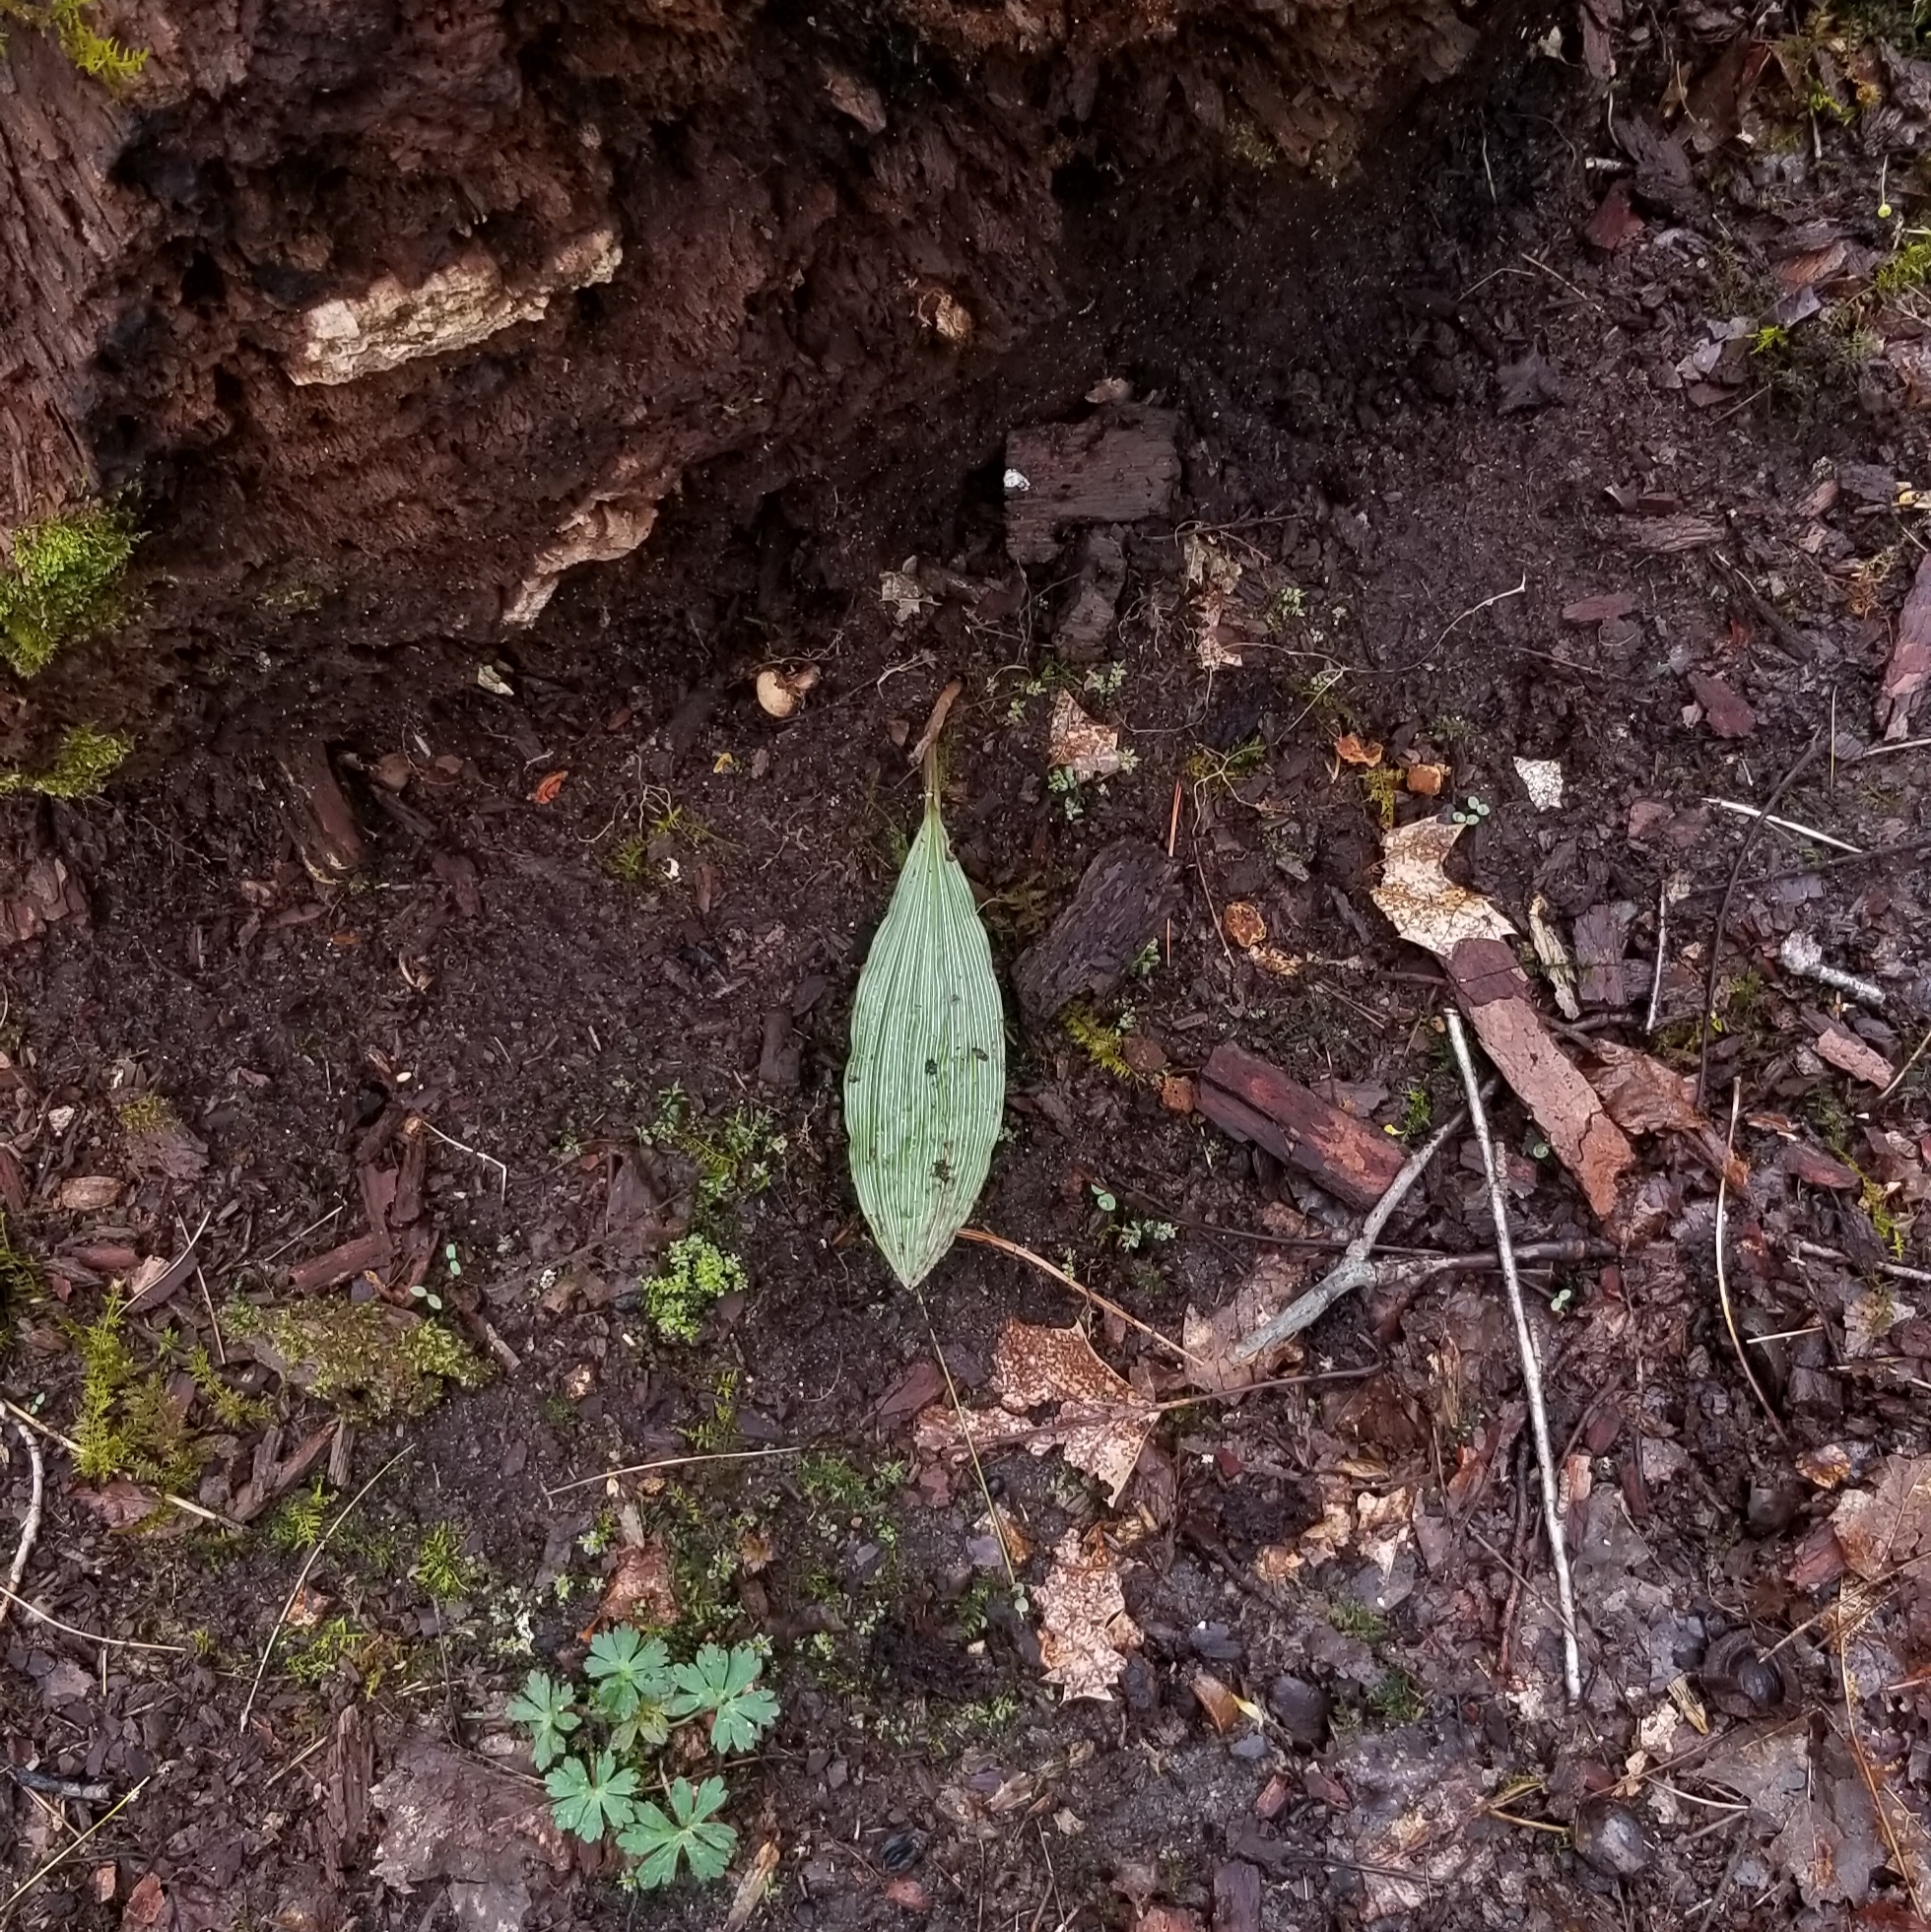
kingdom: Plantae
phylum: Tracheophyta
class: Liliopsida
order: Asparagales
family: Orchidaceae
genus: Aplectrum
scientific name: Aplectrum hyemale
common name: Adam-and-eve
